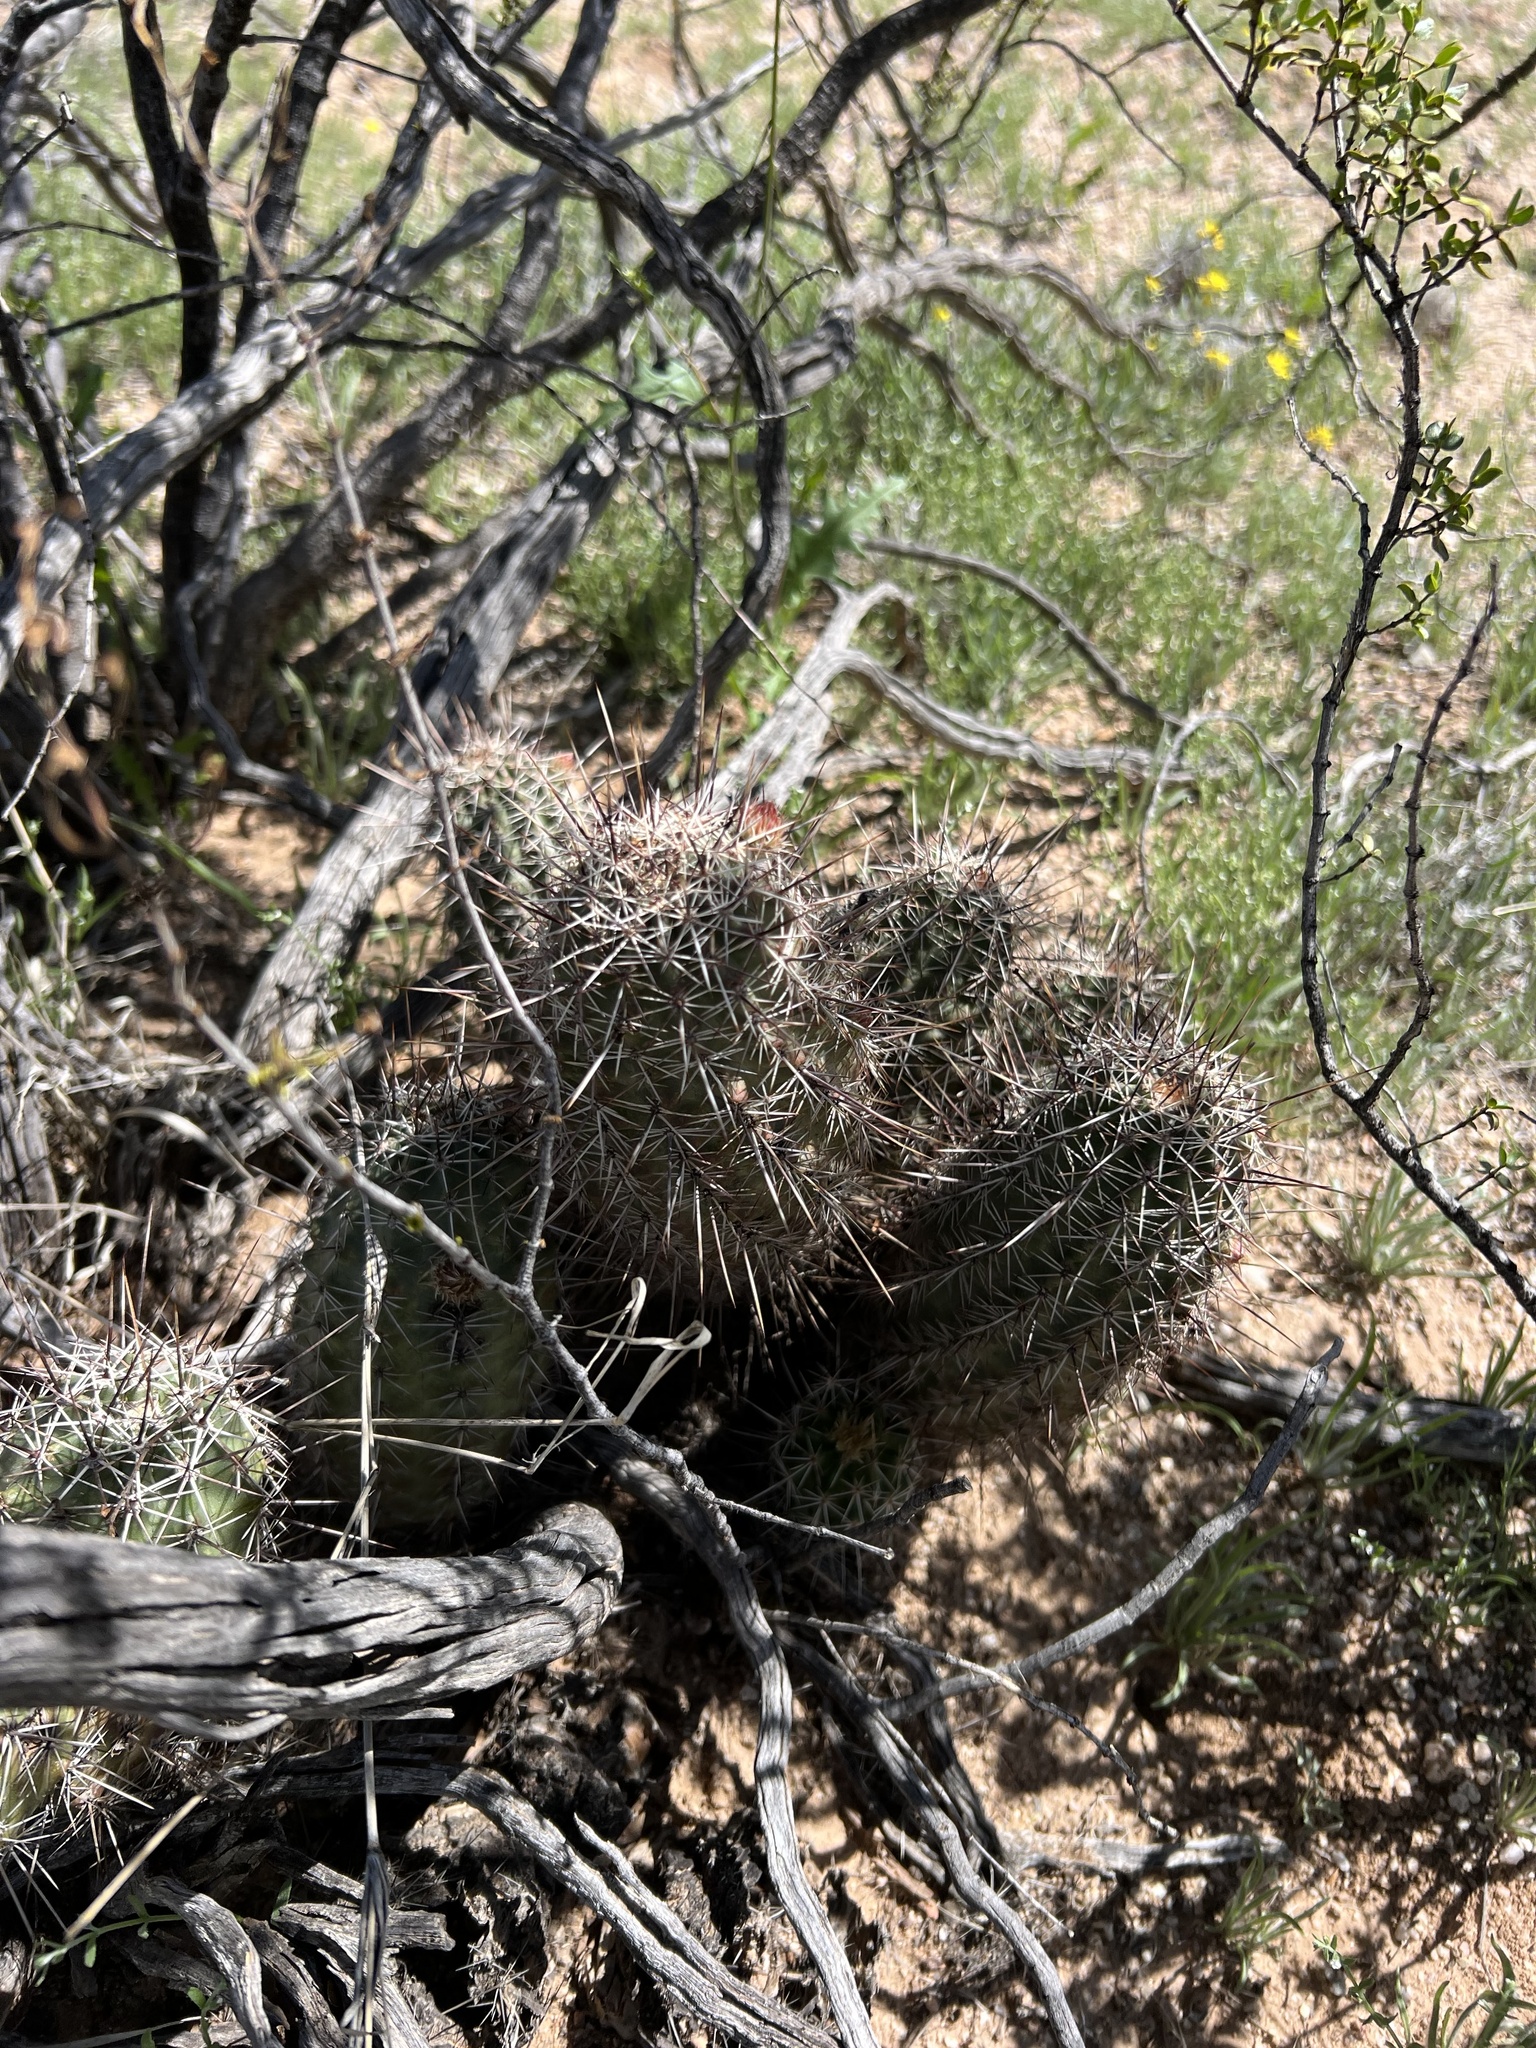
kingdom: Plantae
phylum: Tracheophyta
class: Magnoliopsida
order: Caryophyllales
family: Cactaceae
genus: Echinocereus
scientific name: Echinocereus fasciculatus
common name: Bundle hedgehog
